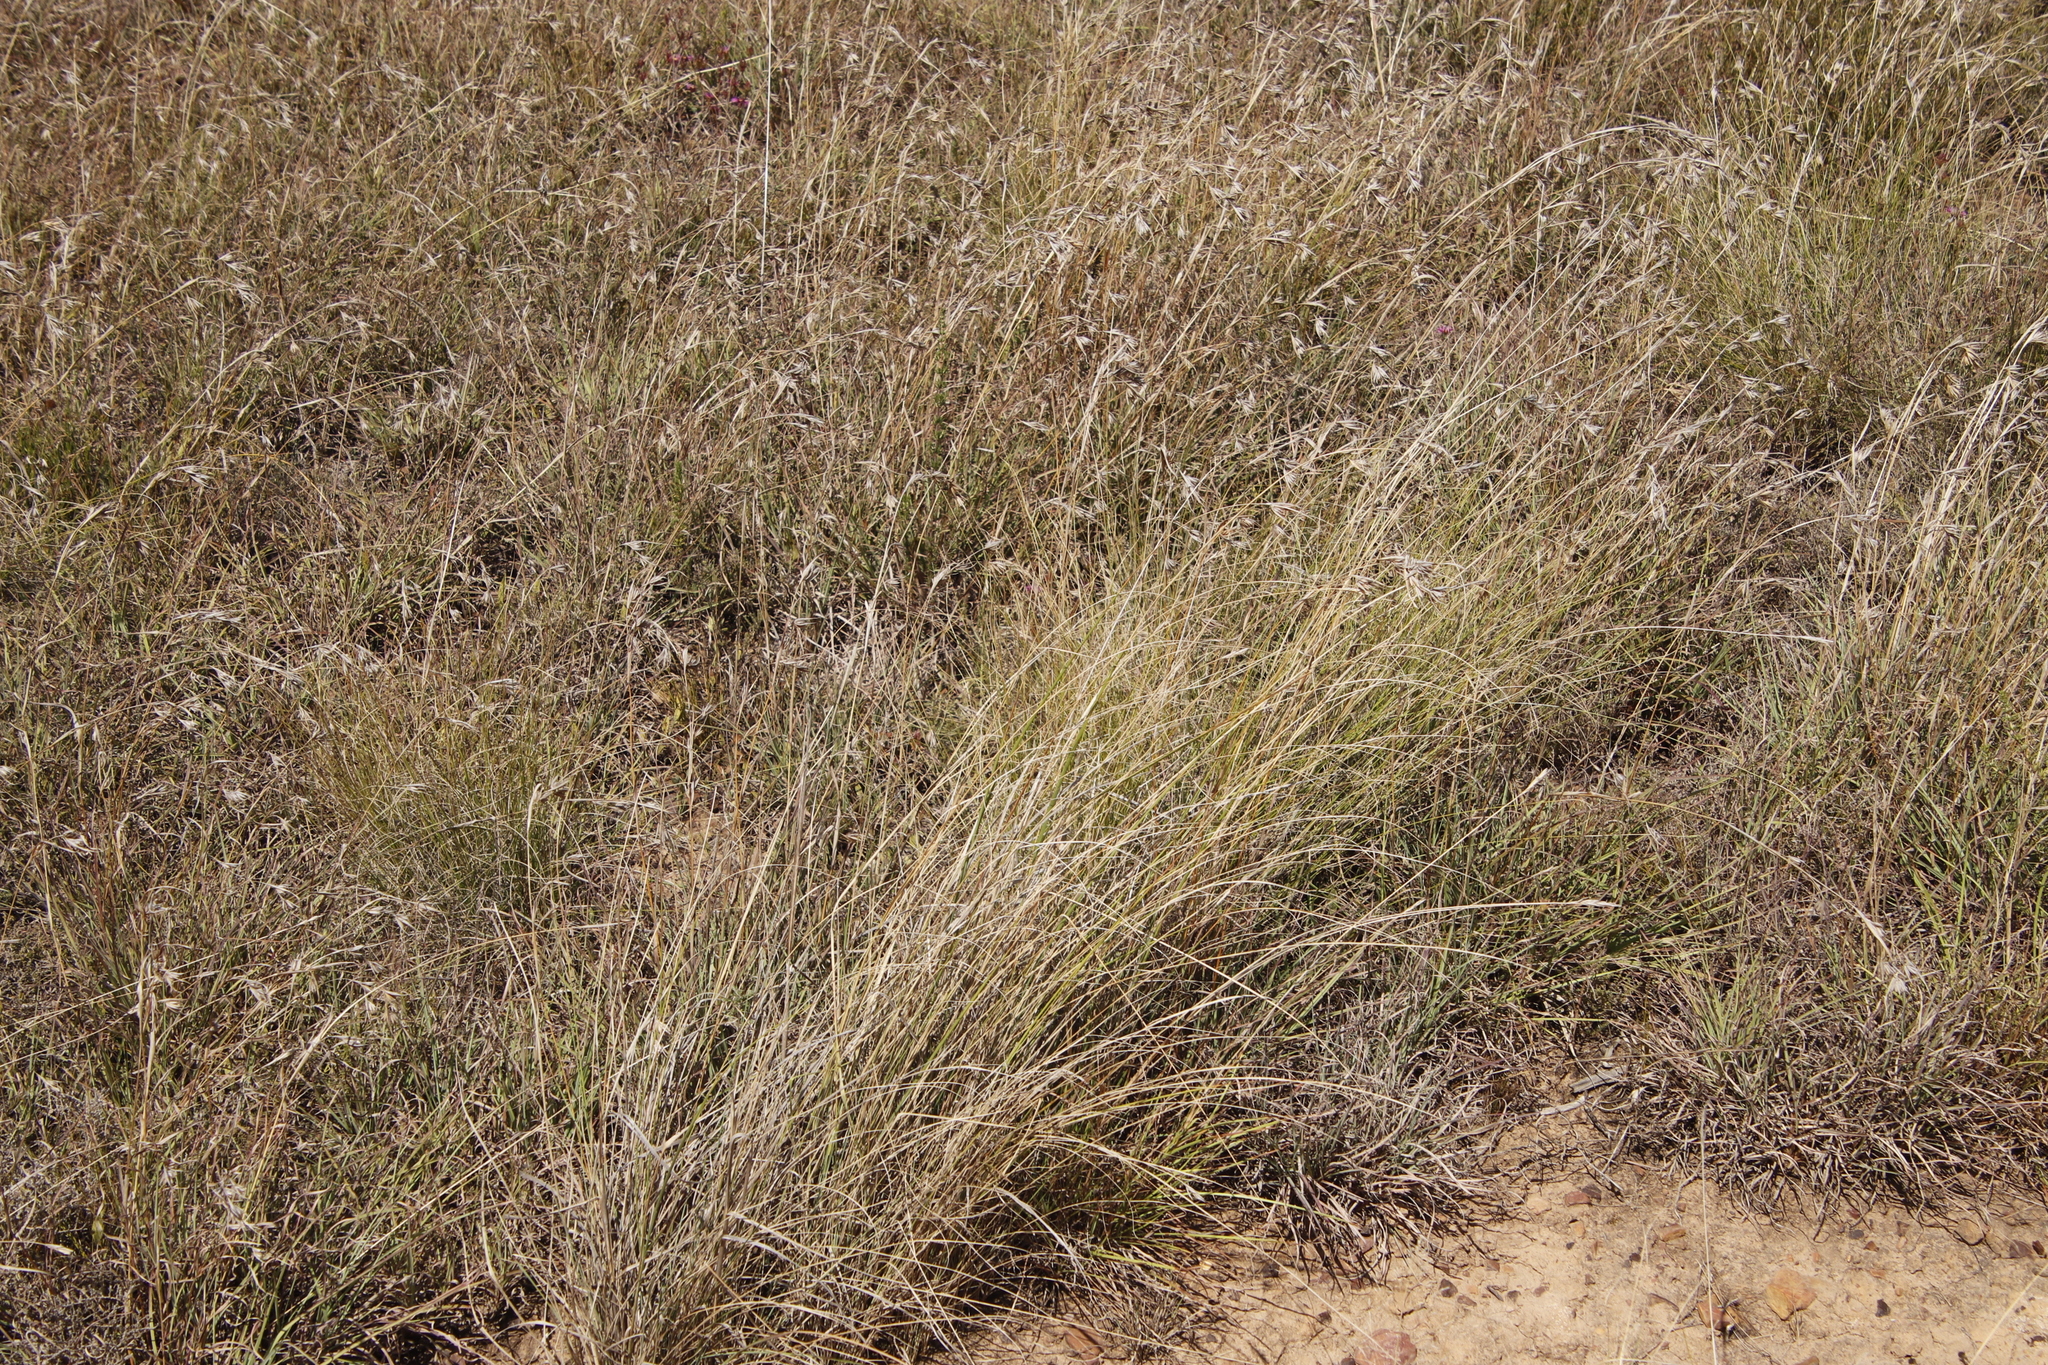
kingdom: Plantae
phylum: Tracheophyta
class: Liliopsida
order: Poales
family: Poaceae
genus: Themeda
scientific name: Themeda triandra
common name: Kangaroo grass
